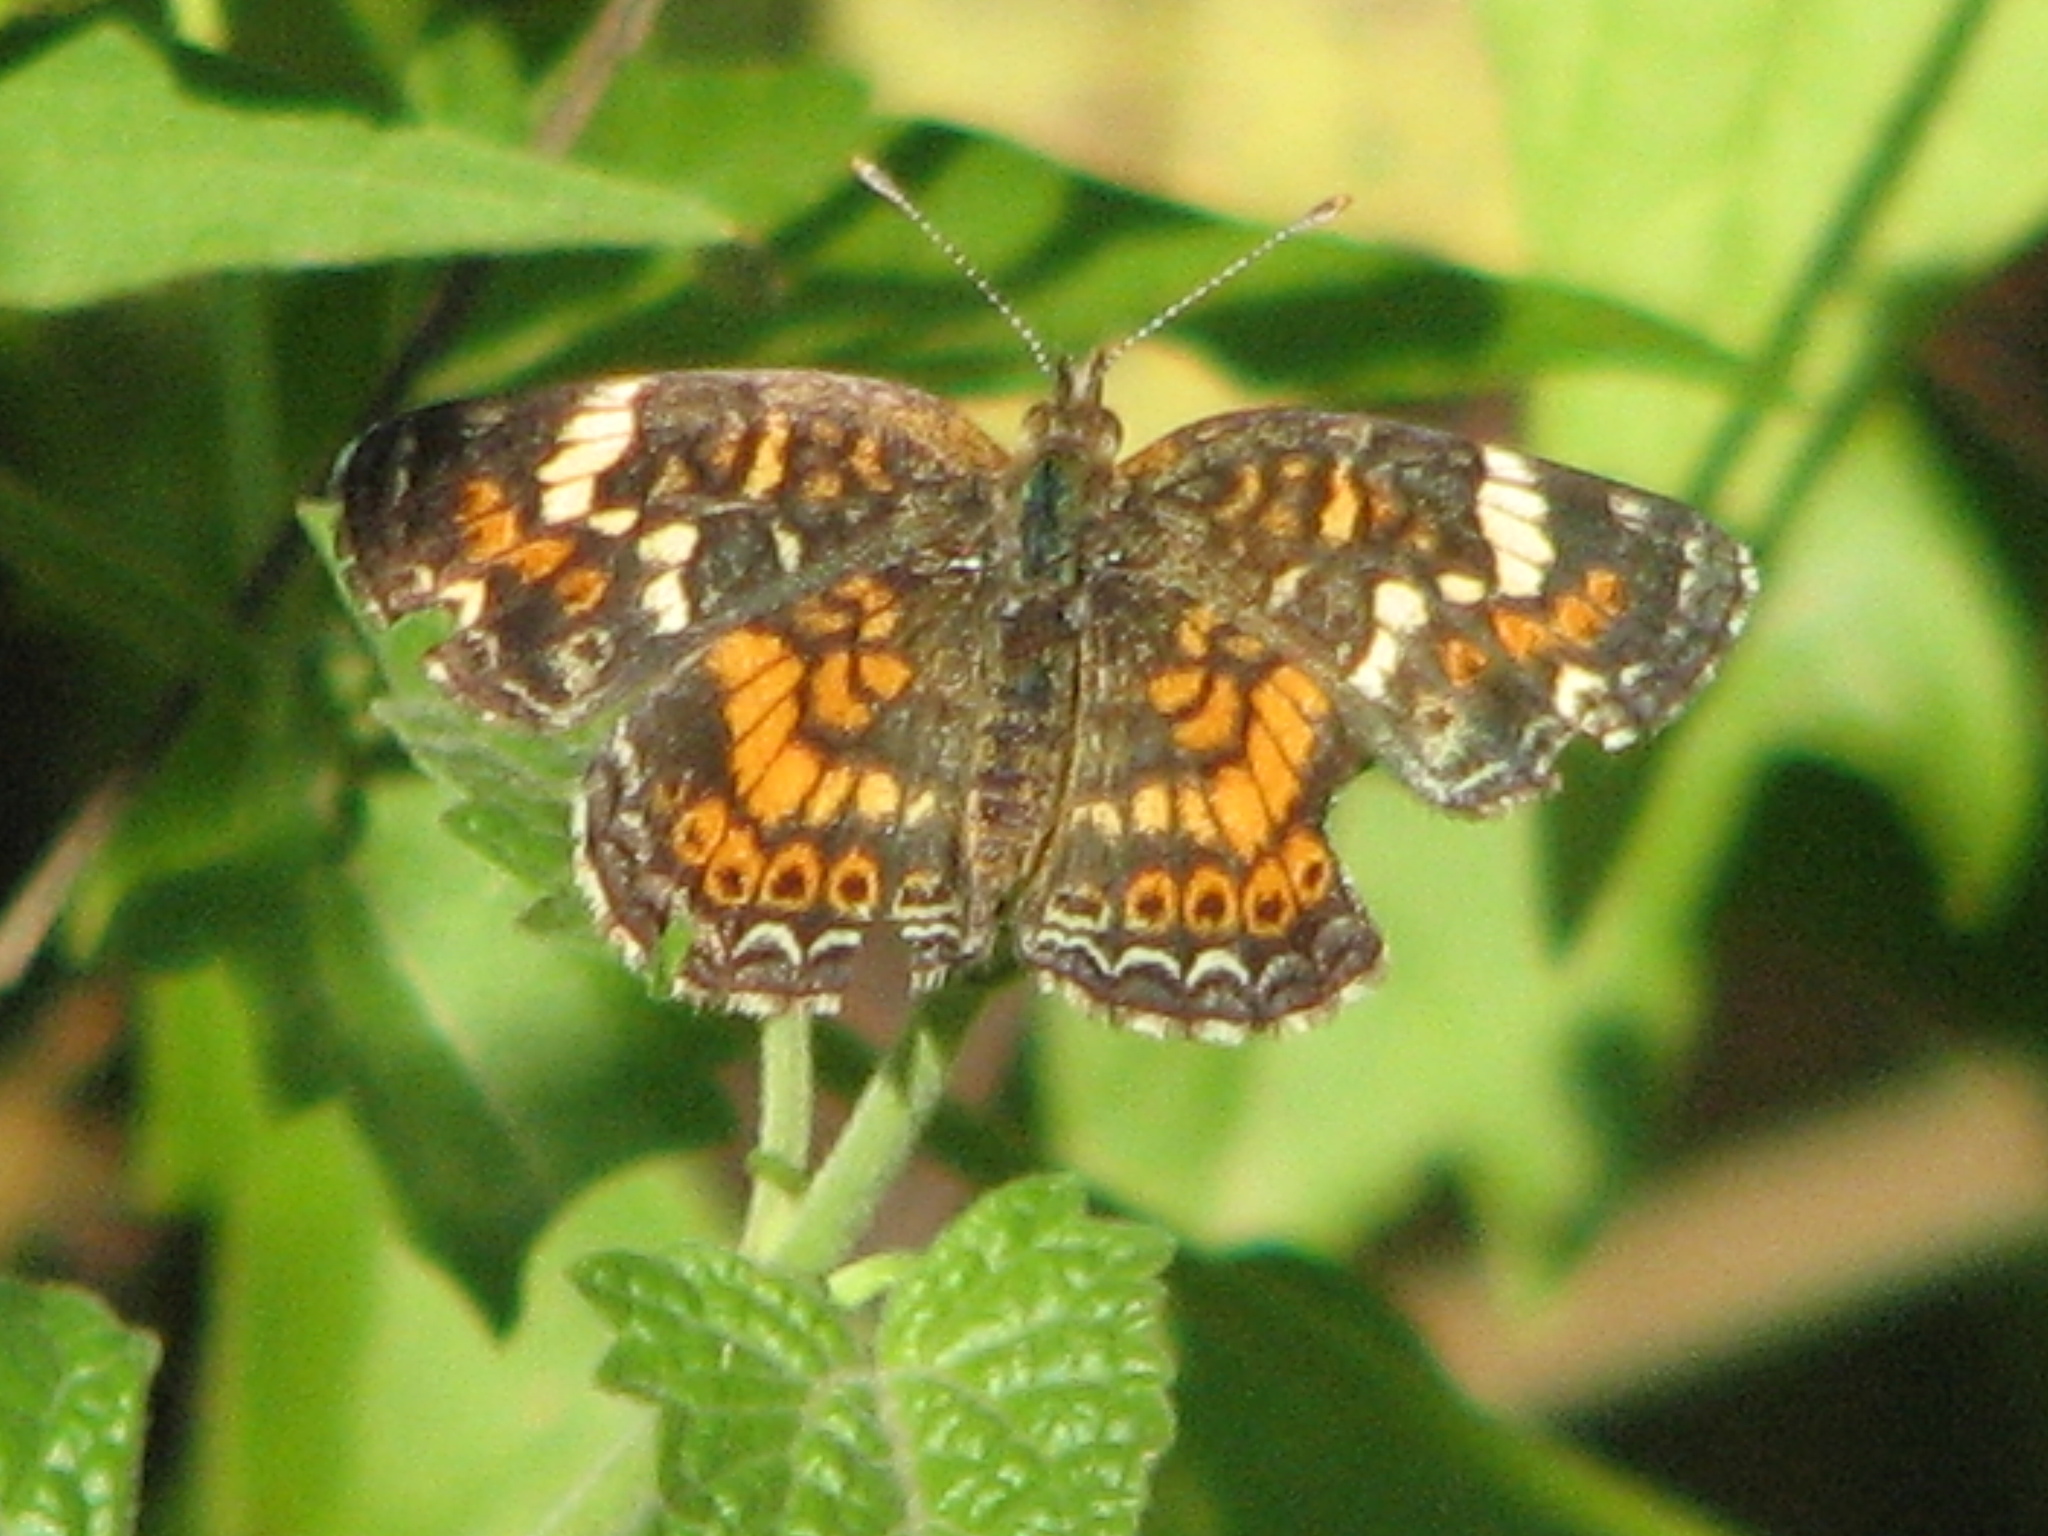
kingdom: Animalia
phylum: Arthropoda
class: Insecta
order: Lepidoptera
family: Nymphalidae
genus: Phyciodes
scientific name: Phyciodes phaon
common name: Phaon crescent
